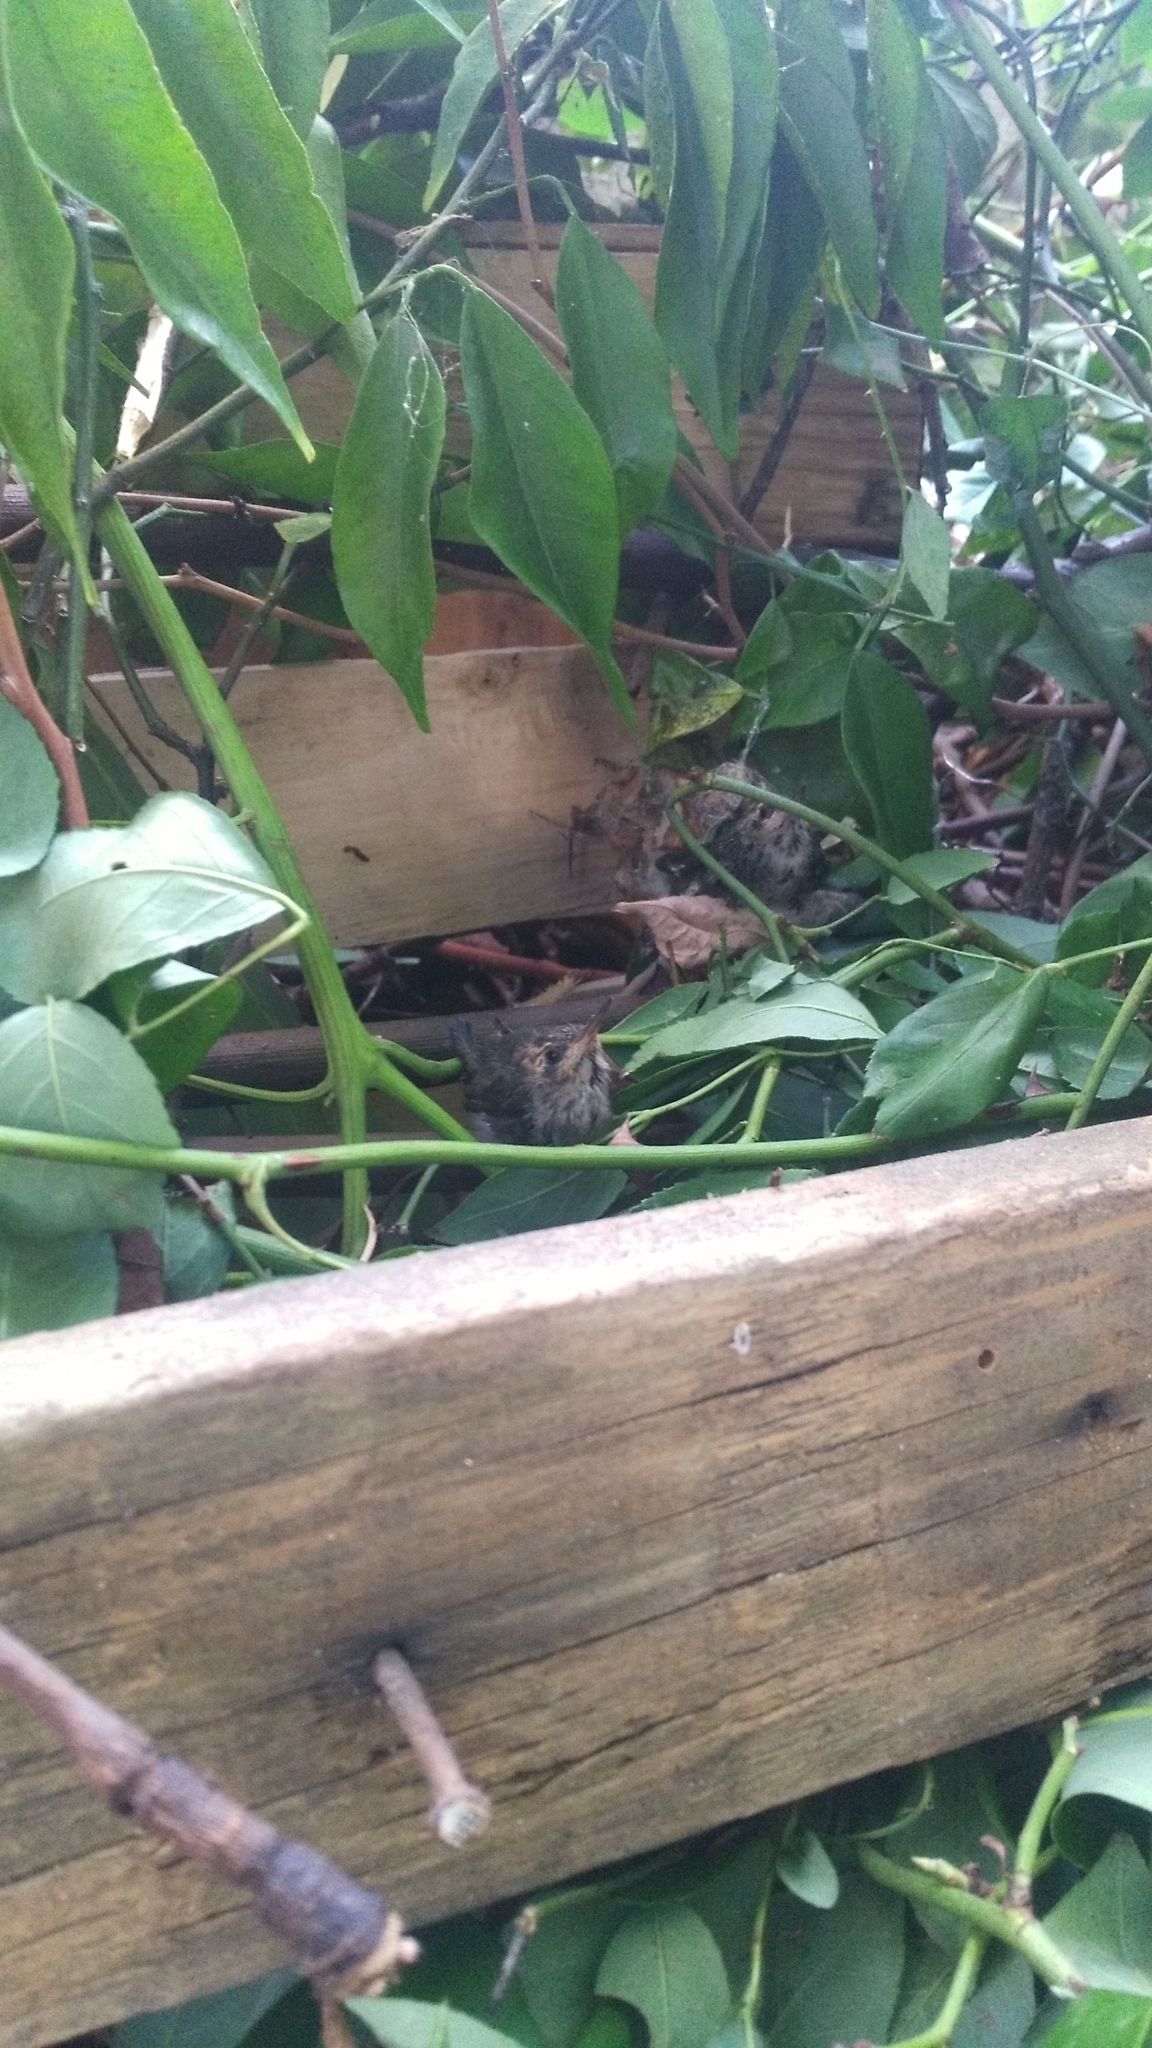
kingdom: Animalia
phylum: Chordata
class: Aves
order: Apodiformes
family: Trochilidae
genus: Chlorostilbon
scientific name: Chlorostilbon lucidus
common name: Glittering-bellied emerald
